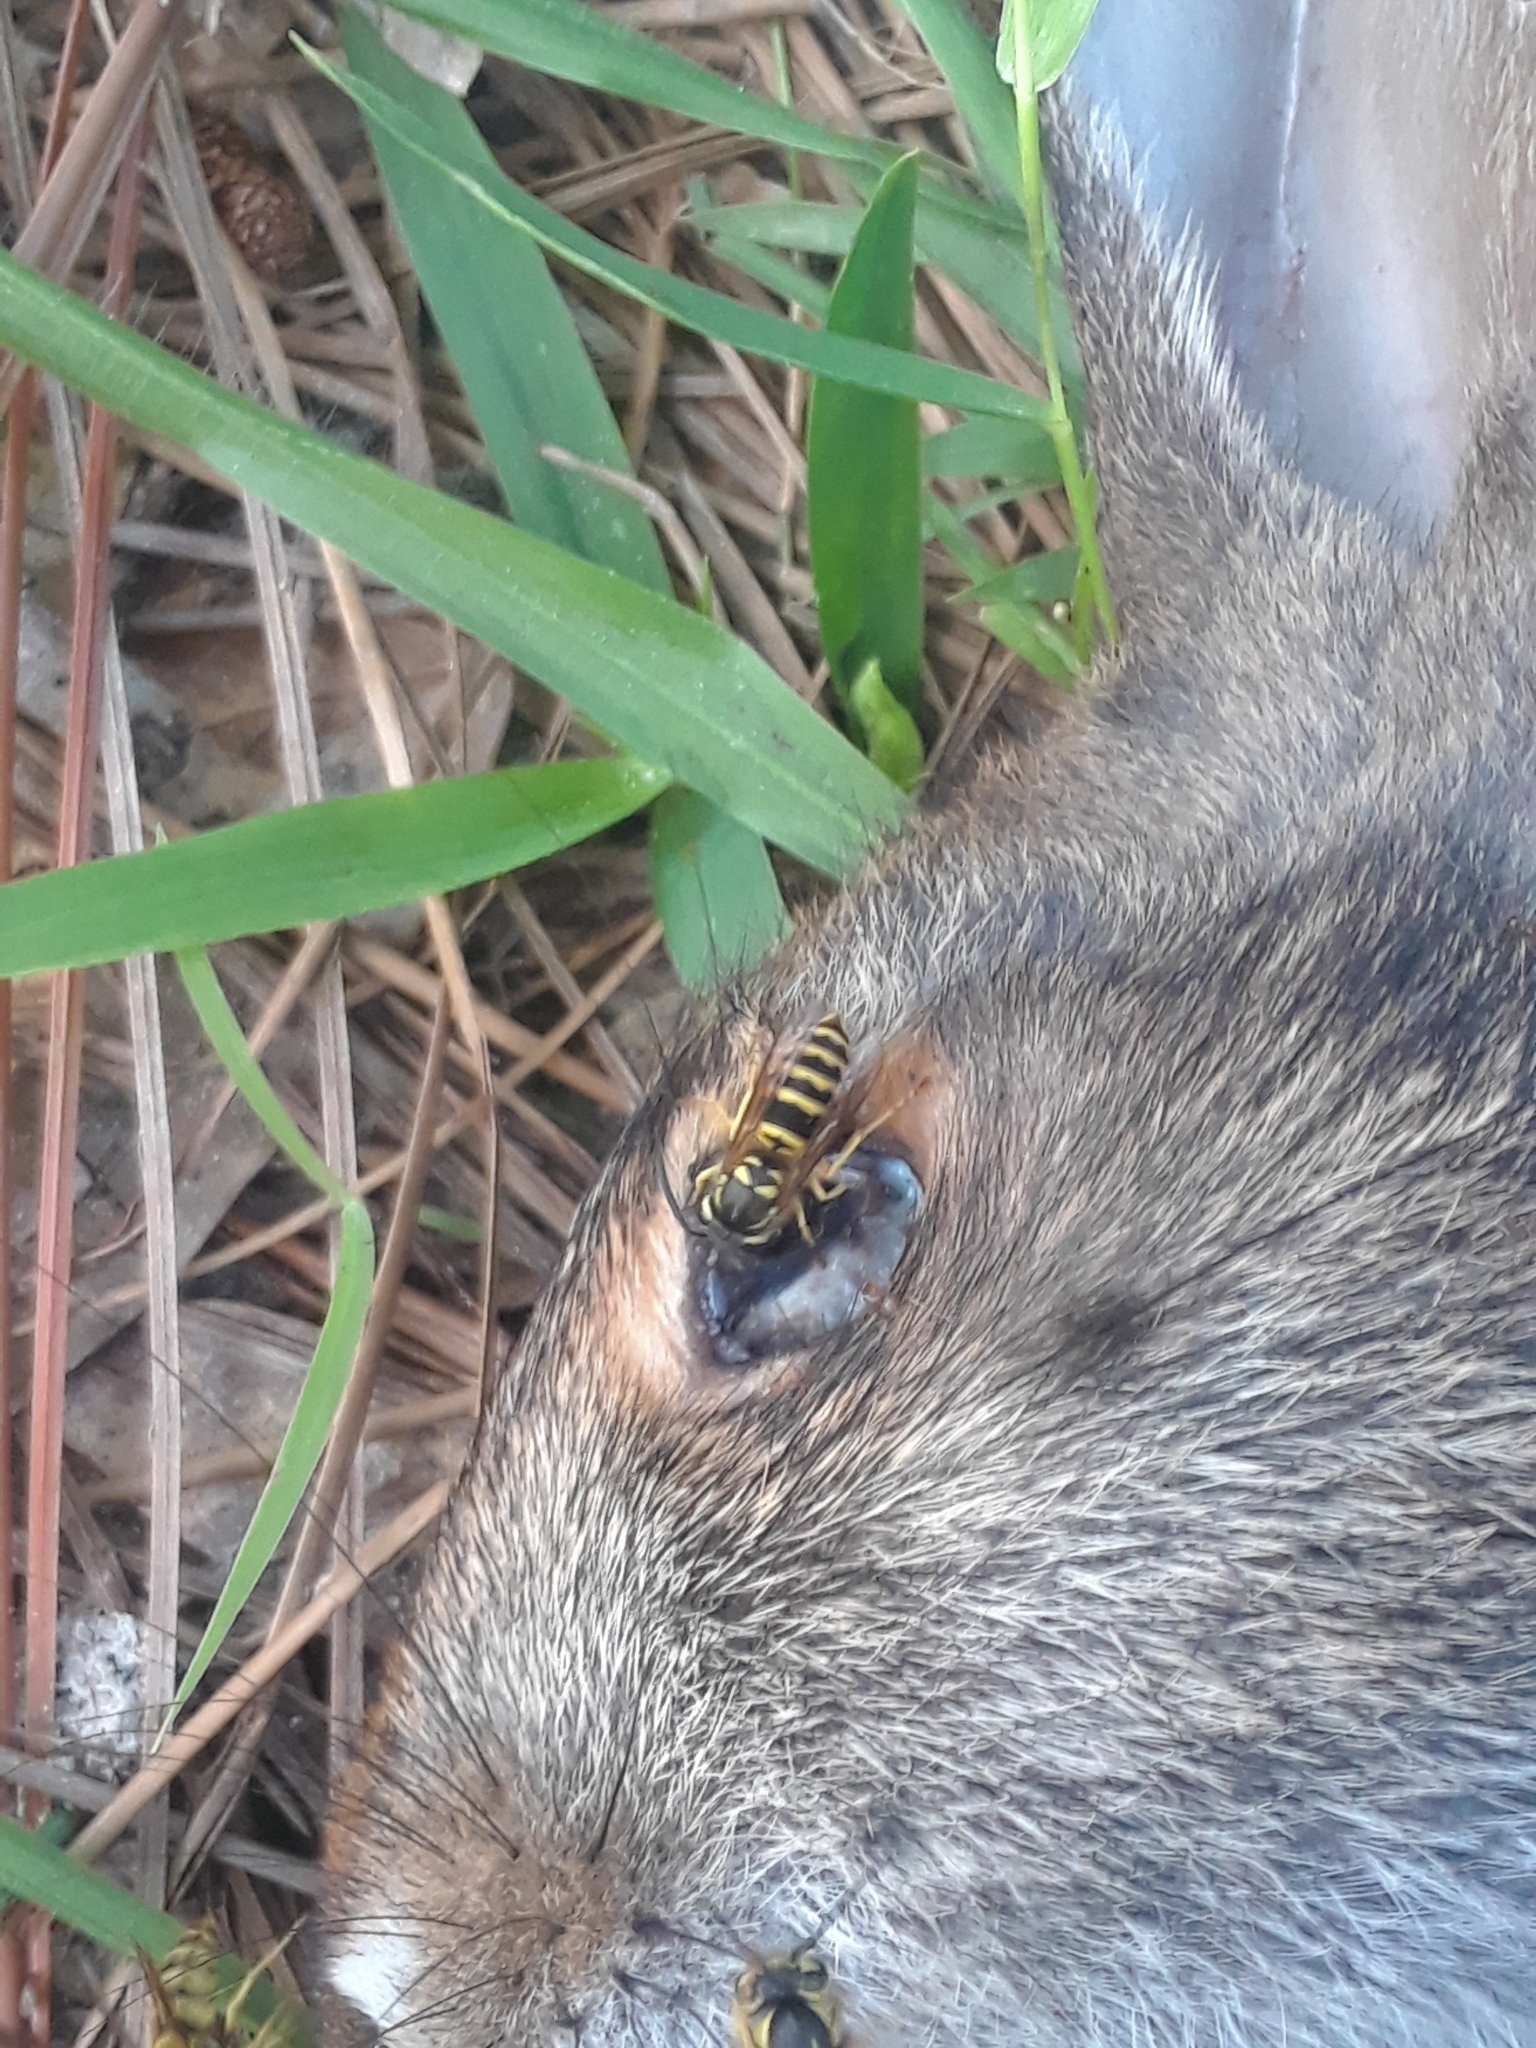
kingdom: Animalia
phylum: Arthropoda
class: Insecta
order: Hymenoptera
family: Vespidae
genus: Vespula
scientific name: Vespula maculifrons
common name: Eastern yellowjacket
